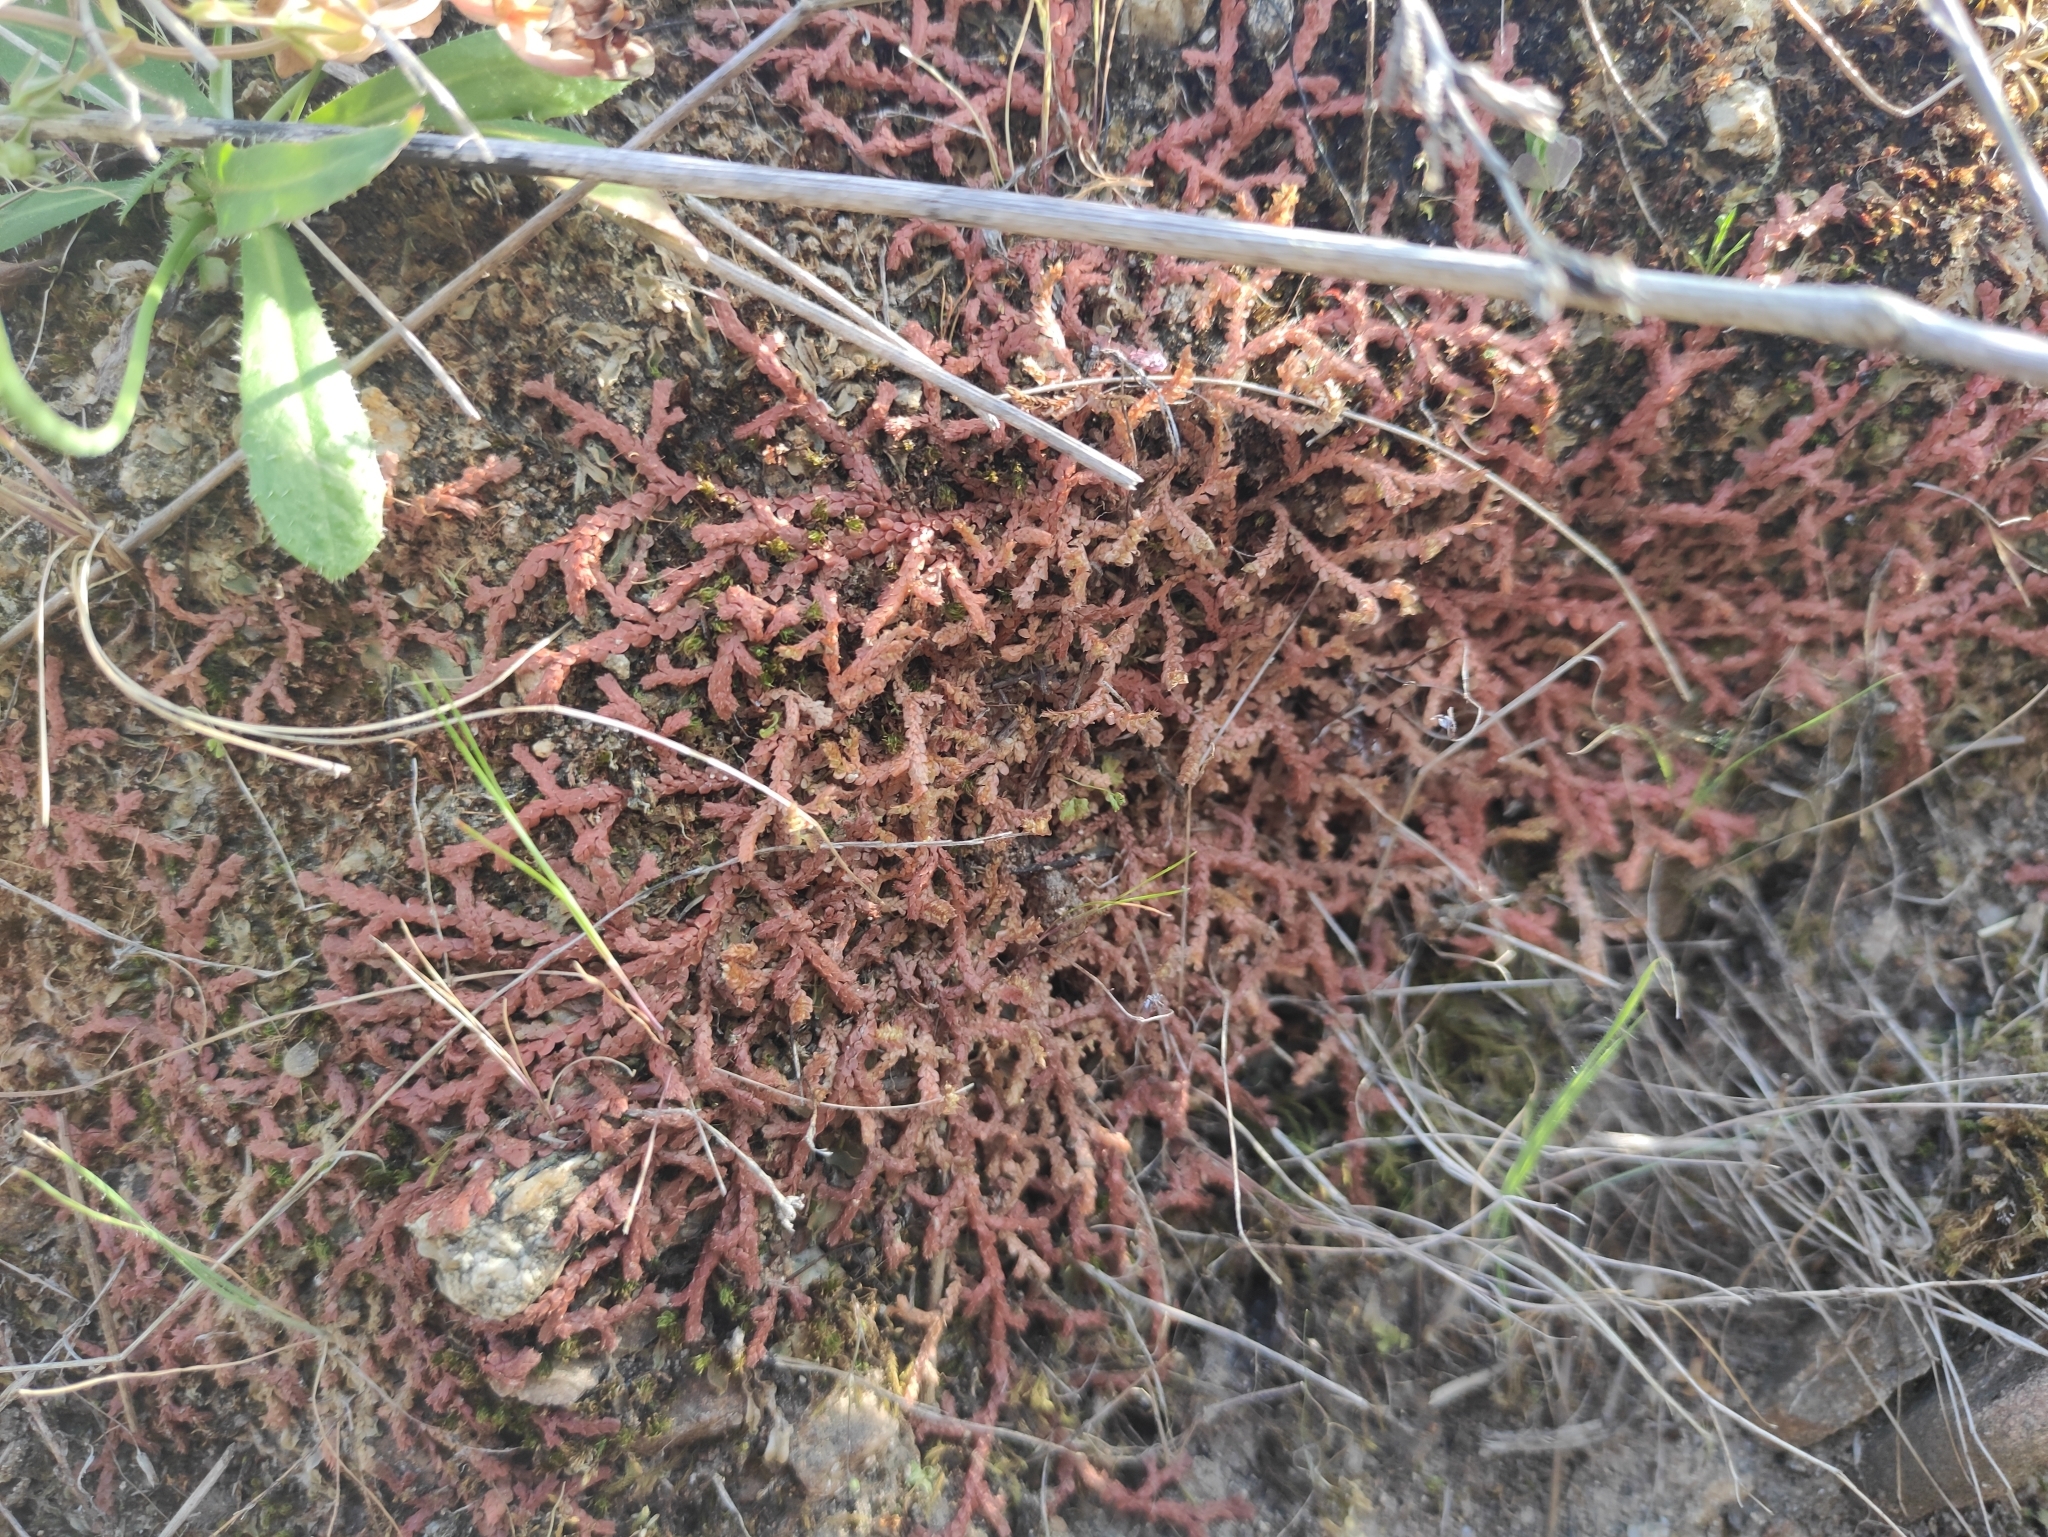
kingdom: Plantae
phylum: Tracheophyta
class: Lycopodiopsida
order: Selaginellales
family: Selaginellaceae
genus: Selaginella
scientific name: Selaginella denticulata
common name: Toothed-leaved clubmoss
